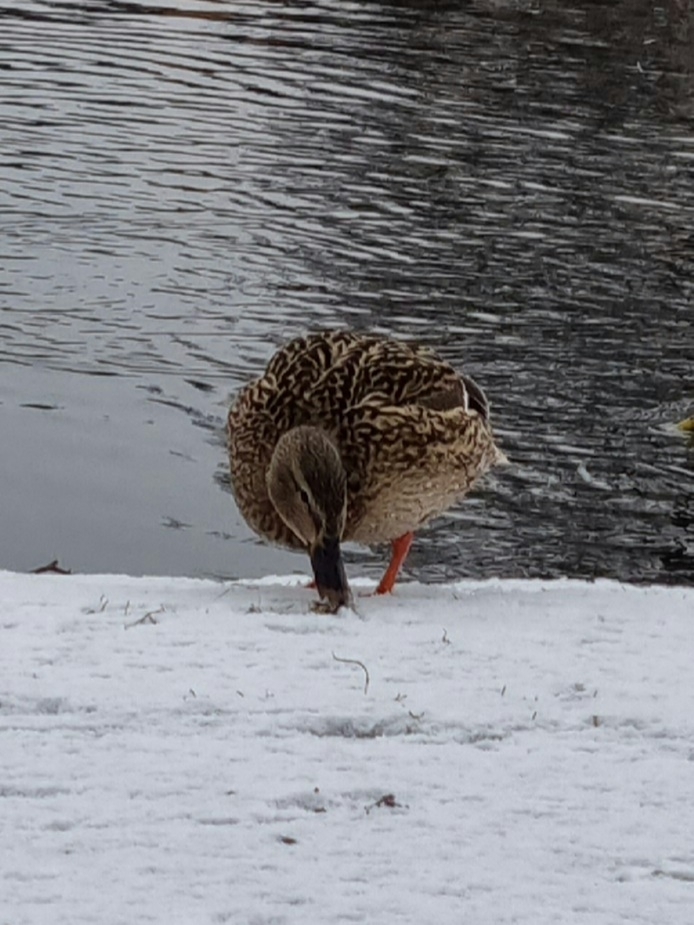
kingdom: Animalia
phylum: Chordata
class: Aves
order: Anseriformes
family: Anatidae
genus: Anas
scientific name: Anas platyrhynchos
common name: Mallard
